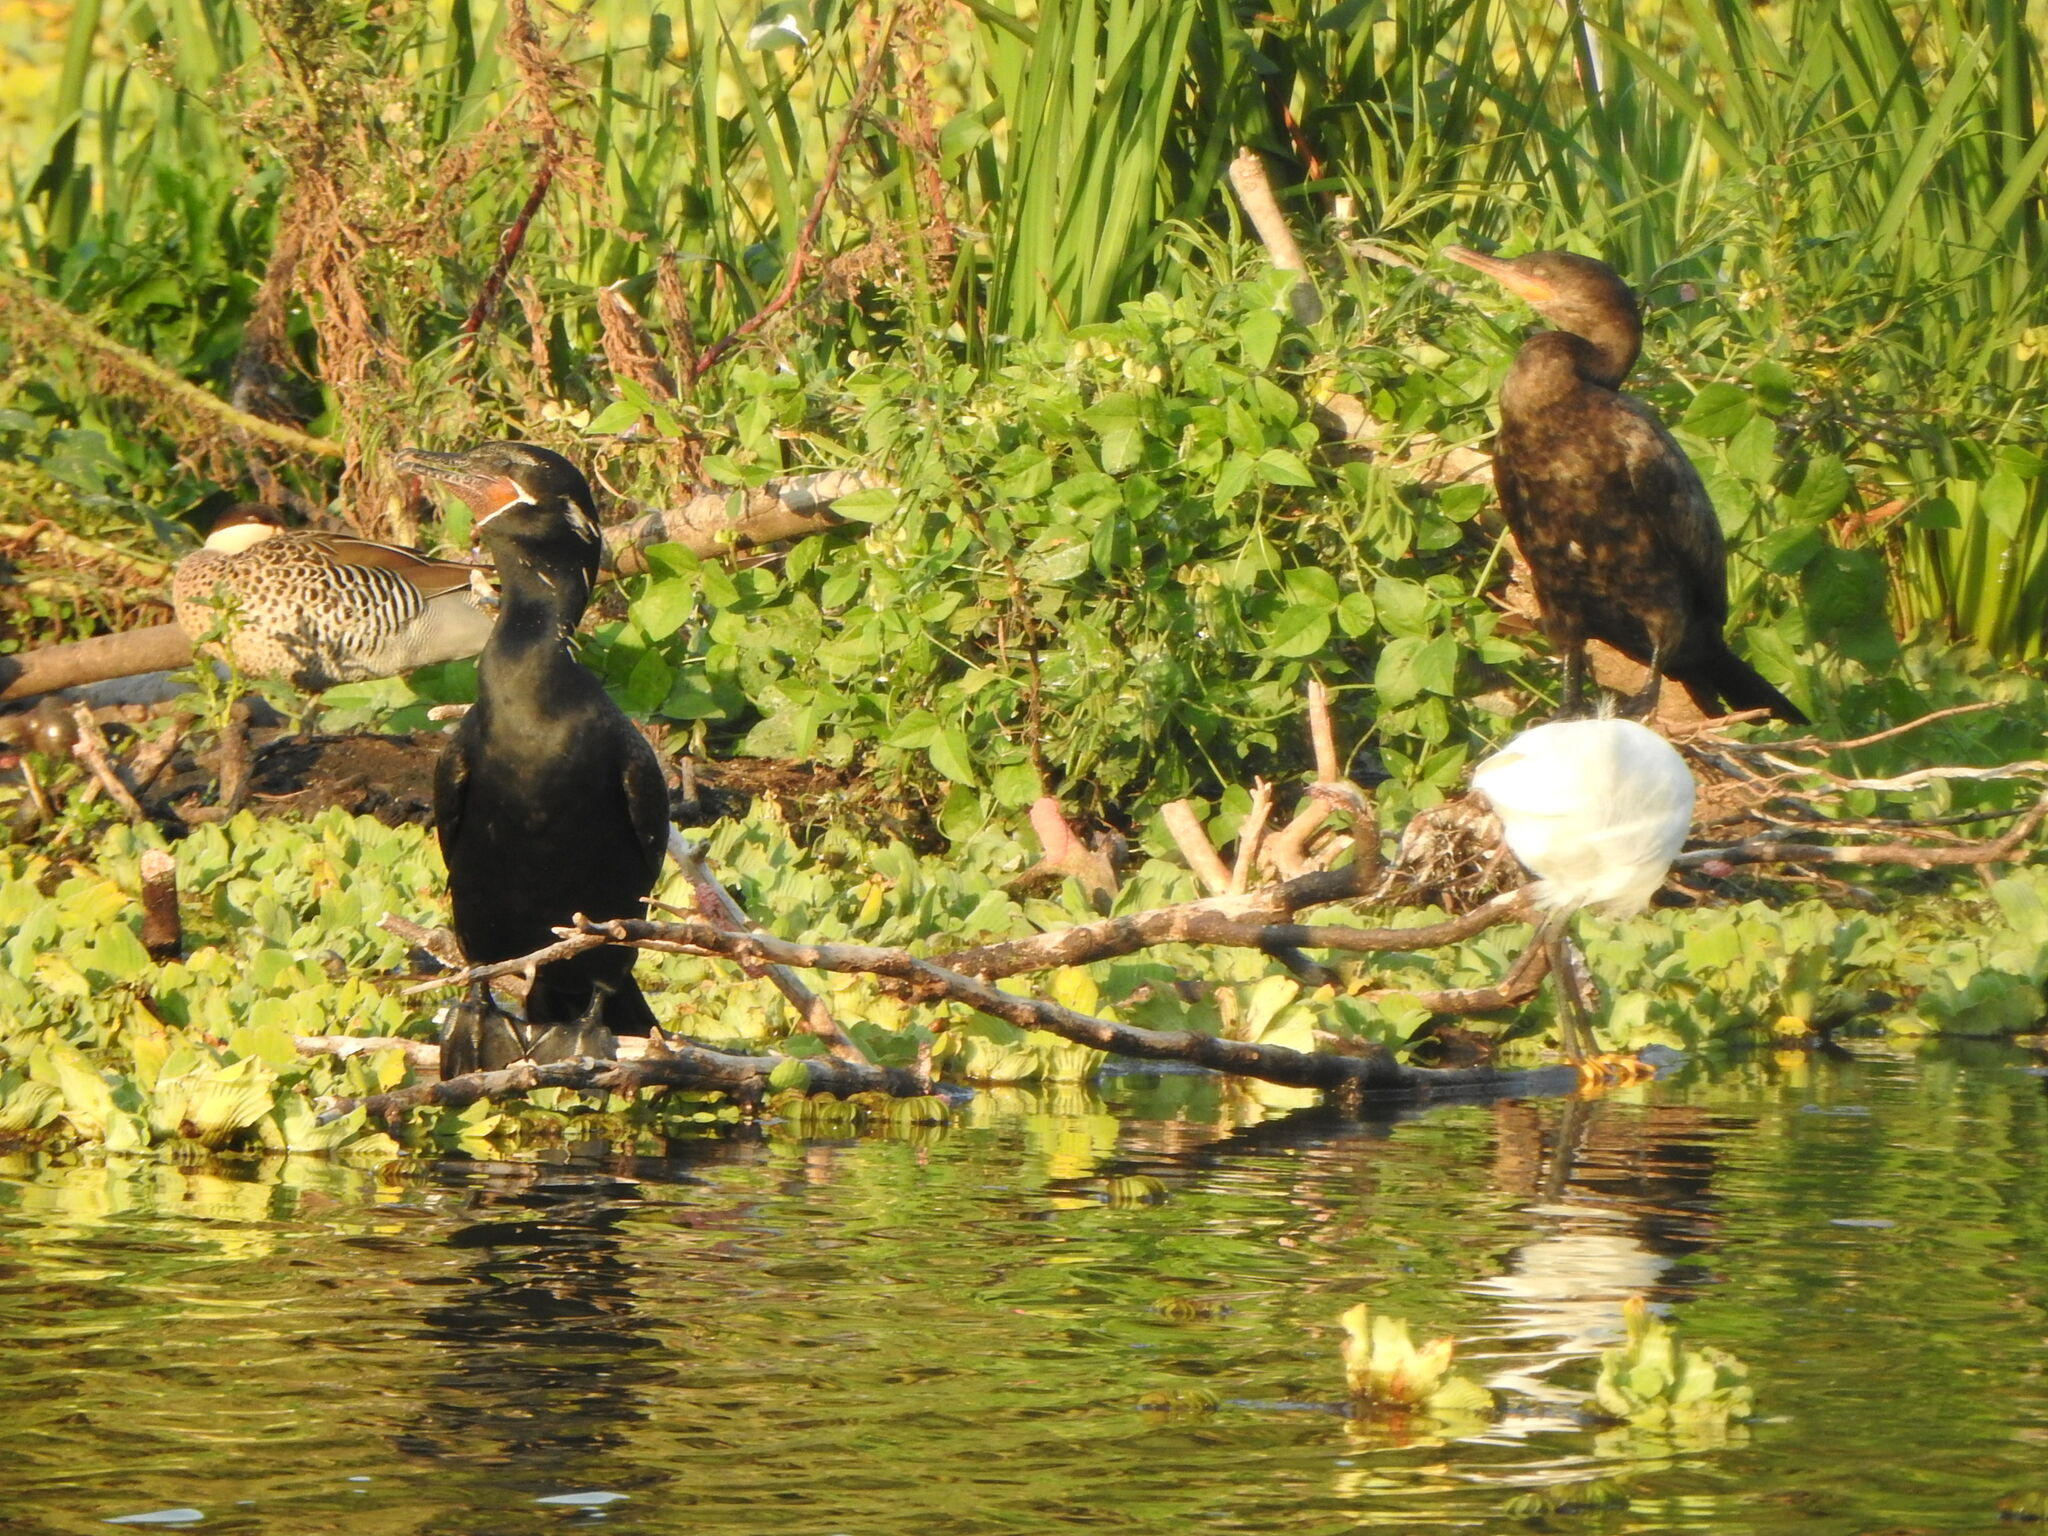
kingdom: Animalia
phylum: Chordata
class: Aves
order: Suliformes
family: Phalacrocoracidae
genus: Phalacrocorax
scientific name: Phalacrocorax brasilianus
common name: Neotropic cormorant
